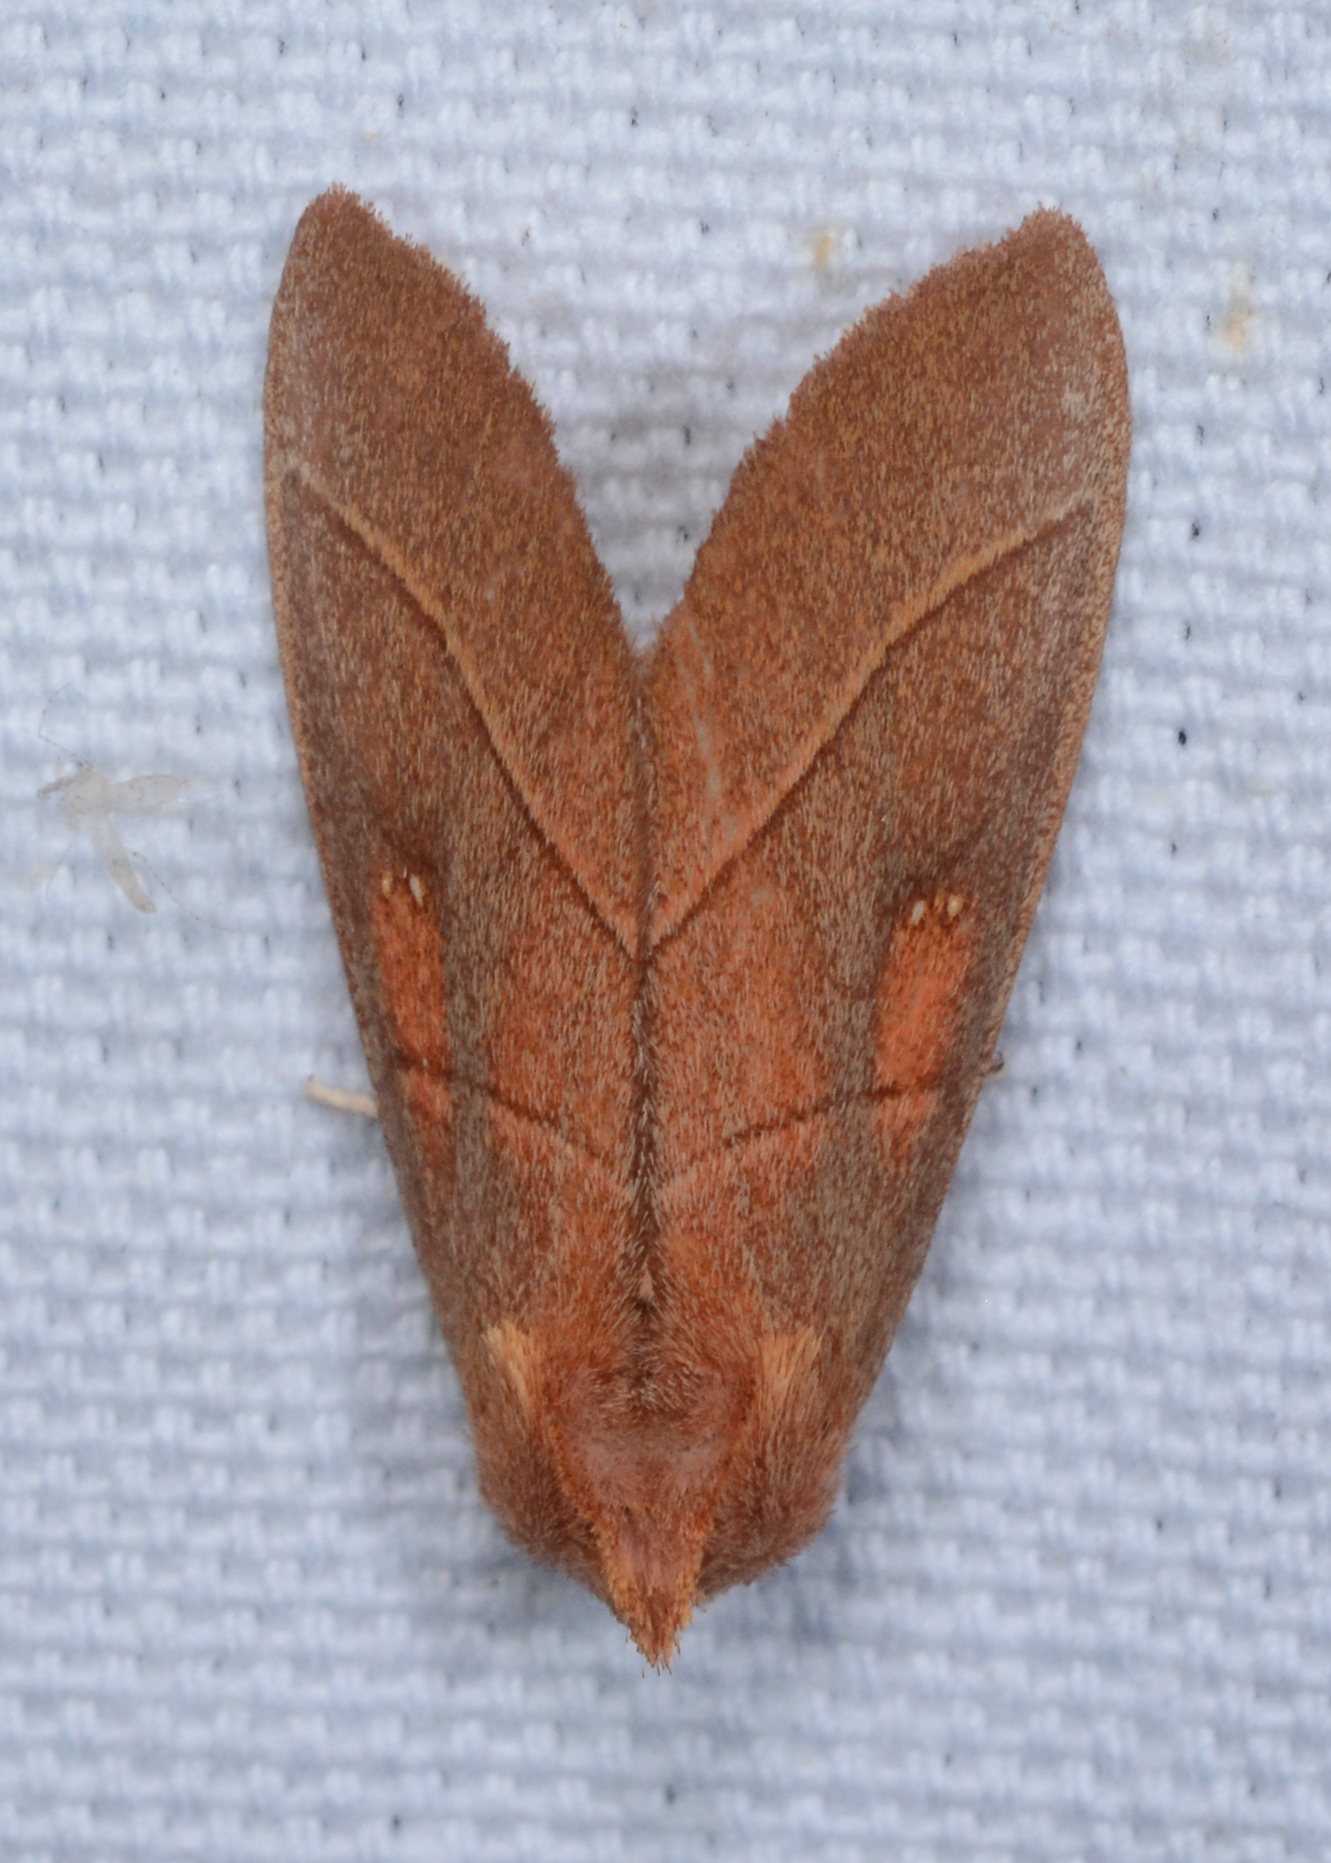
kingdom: Animalia
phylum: Arthropoda
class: Insecta
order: Lepidoptera
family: Notodontidae
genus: Nadata
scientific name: Nadata gibbosa
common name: White-dotted prominent
